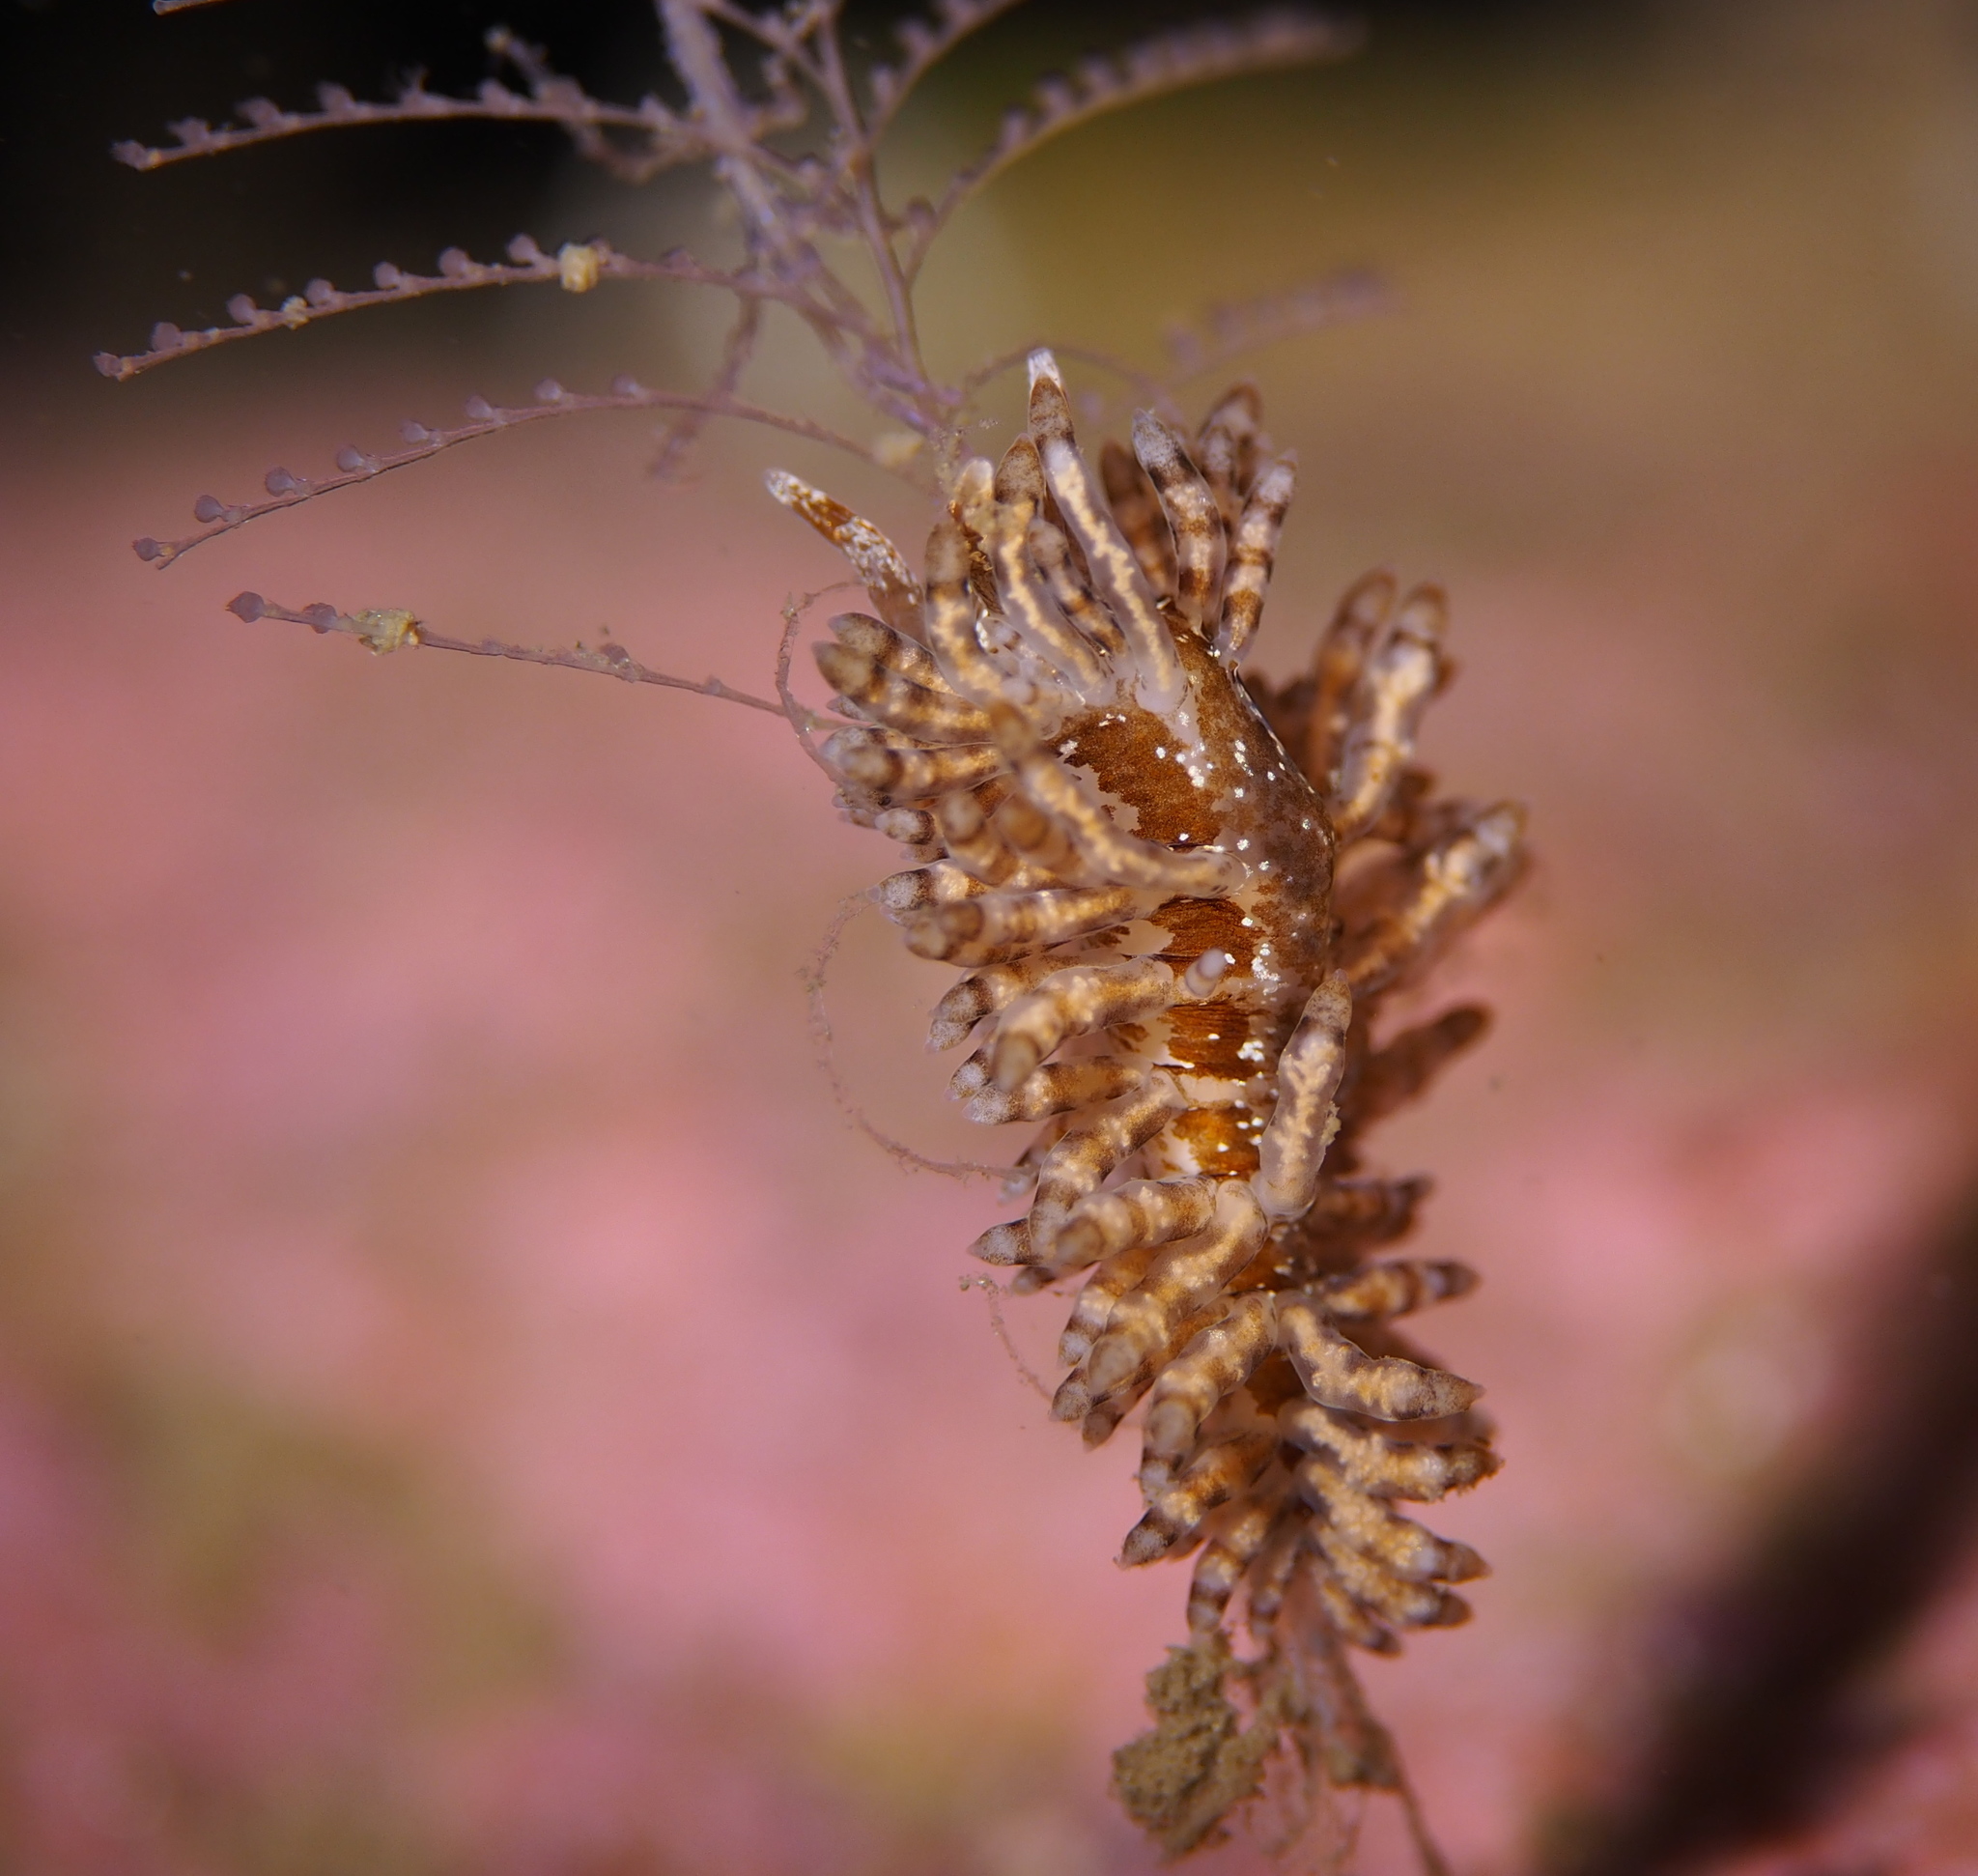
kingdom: Animalia
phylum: Mollusca
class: Gastropoda
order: Nudibranchia
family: Eubranchidae
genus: Eubranchus
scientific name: Eubranchus vittatus
